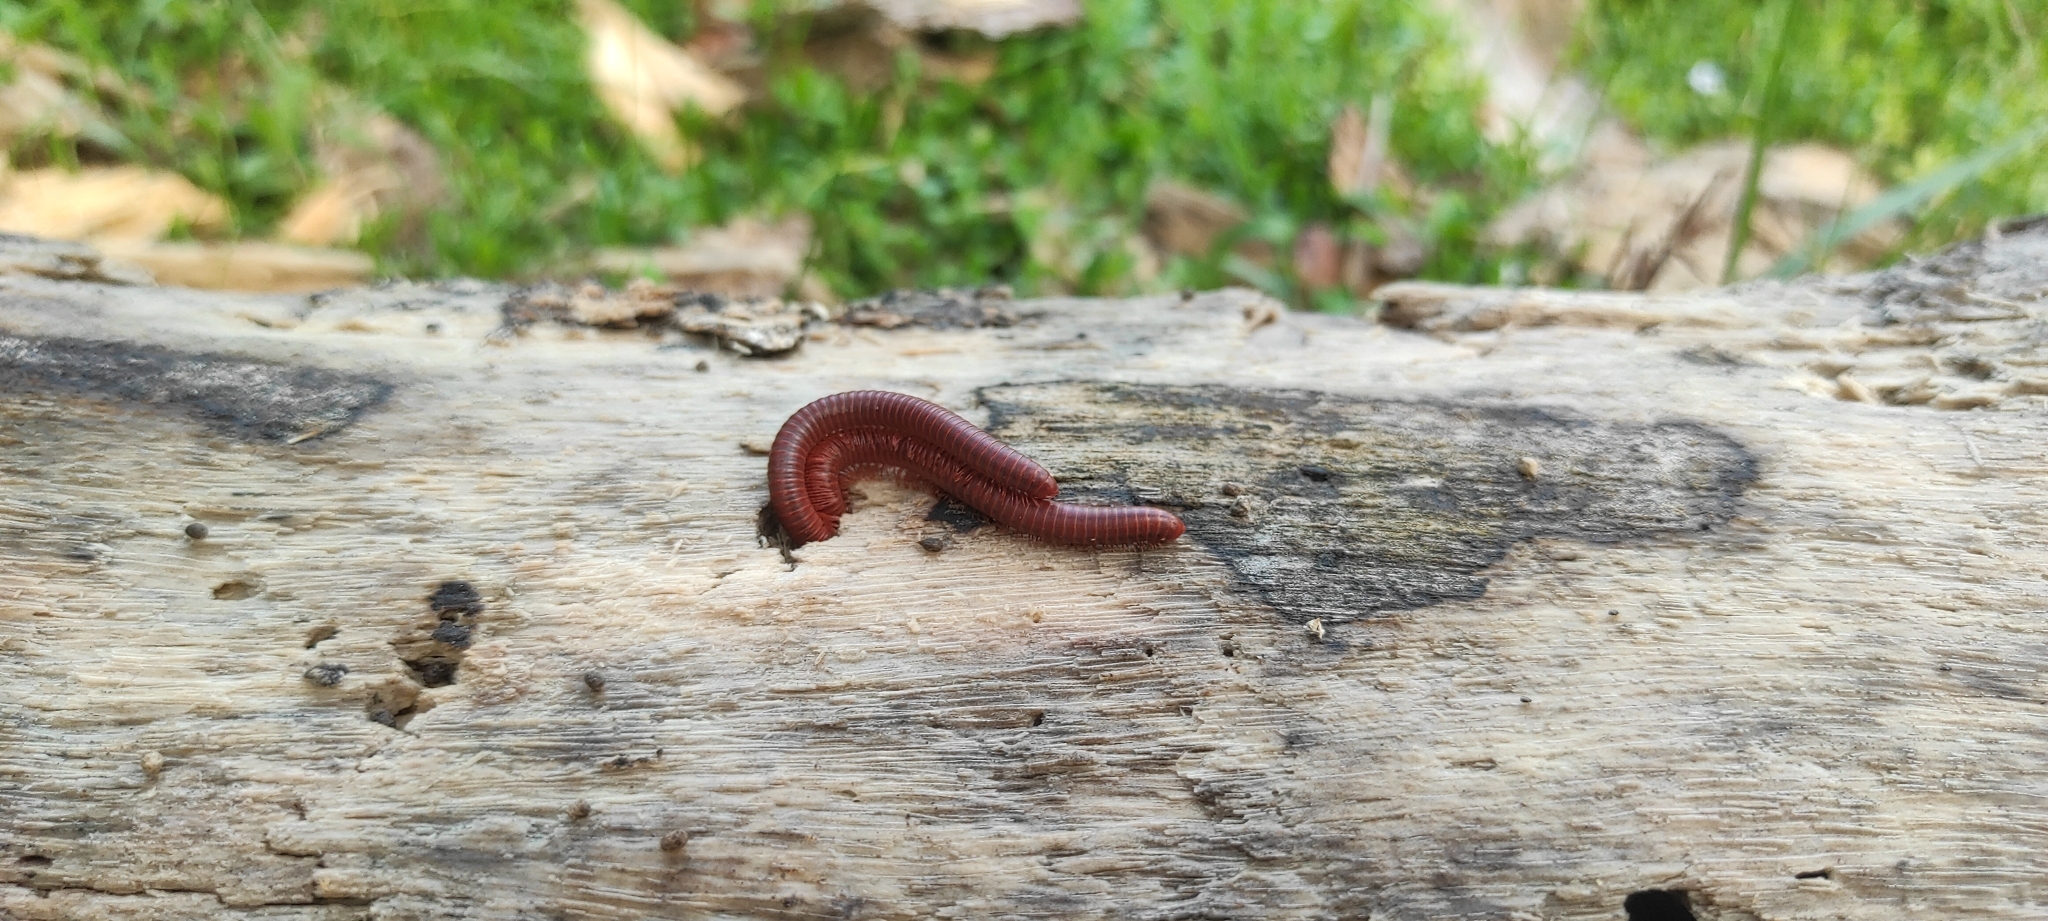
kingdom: Animalia
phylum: Arthropoda
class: Diplopoda
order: Spirobolida
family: Pachybolidae
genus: Trigoniulus
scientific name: Trigoniulus corallinus
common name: Millipede
